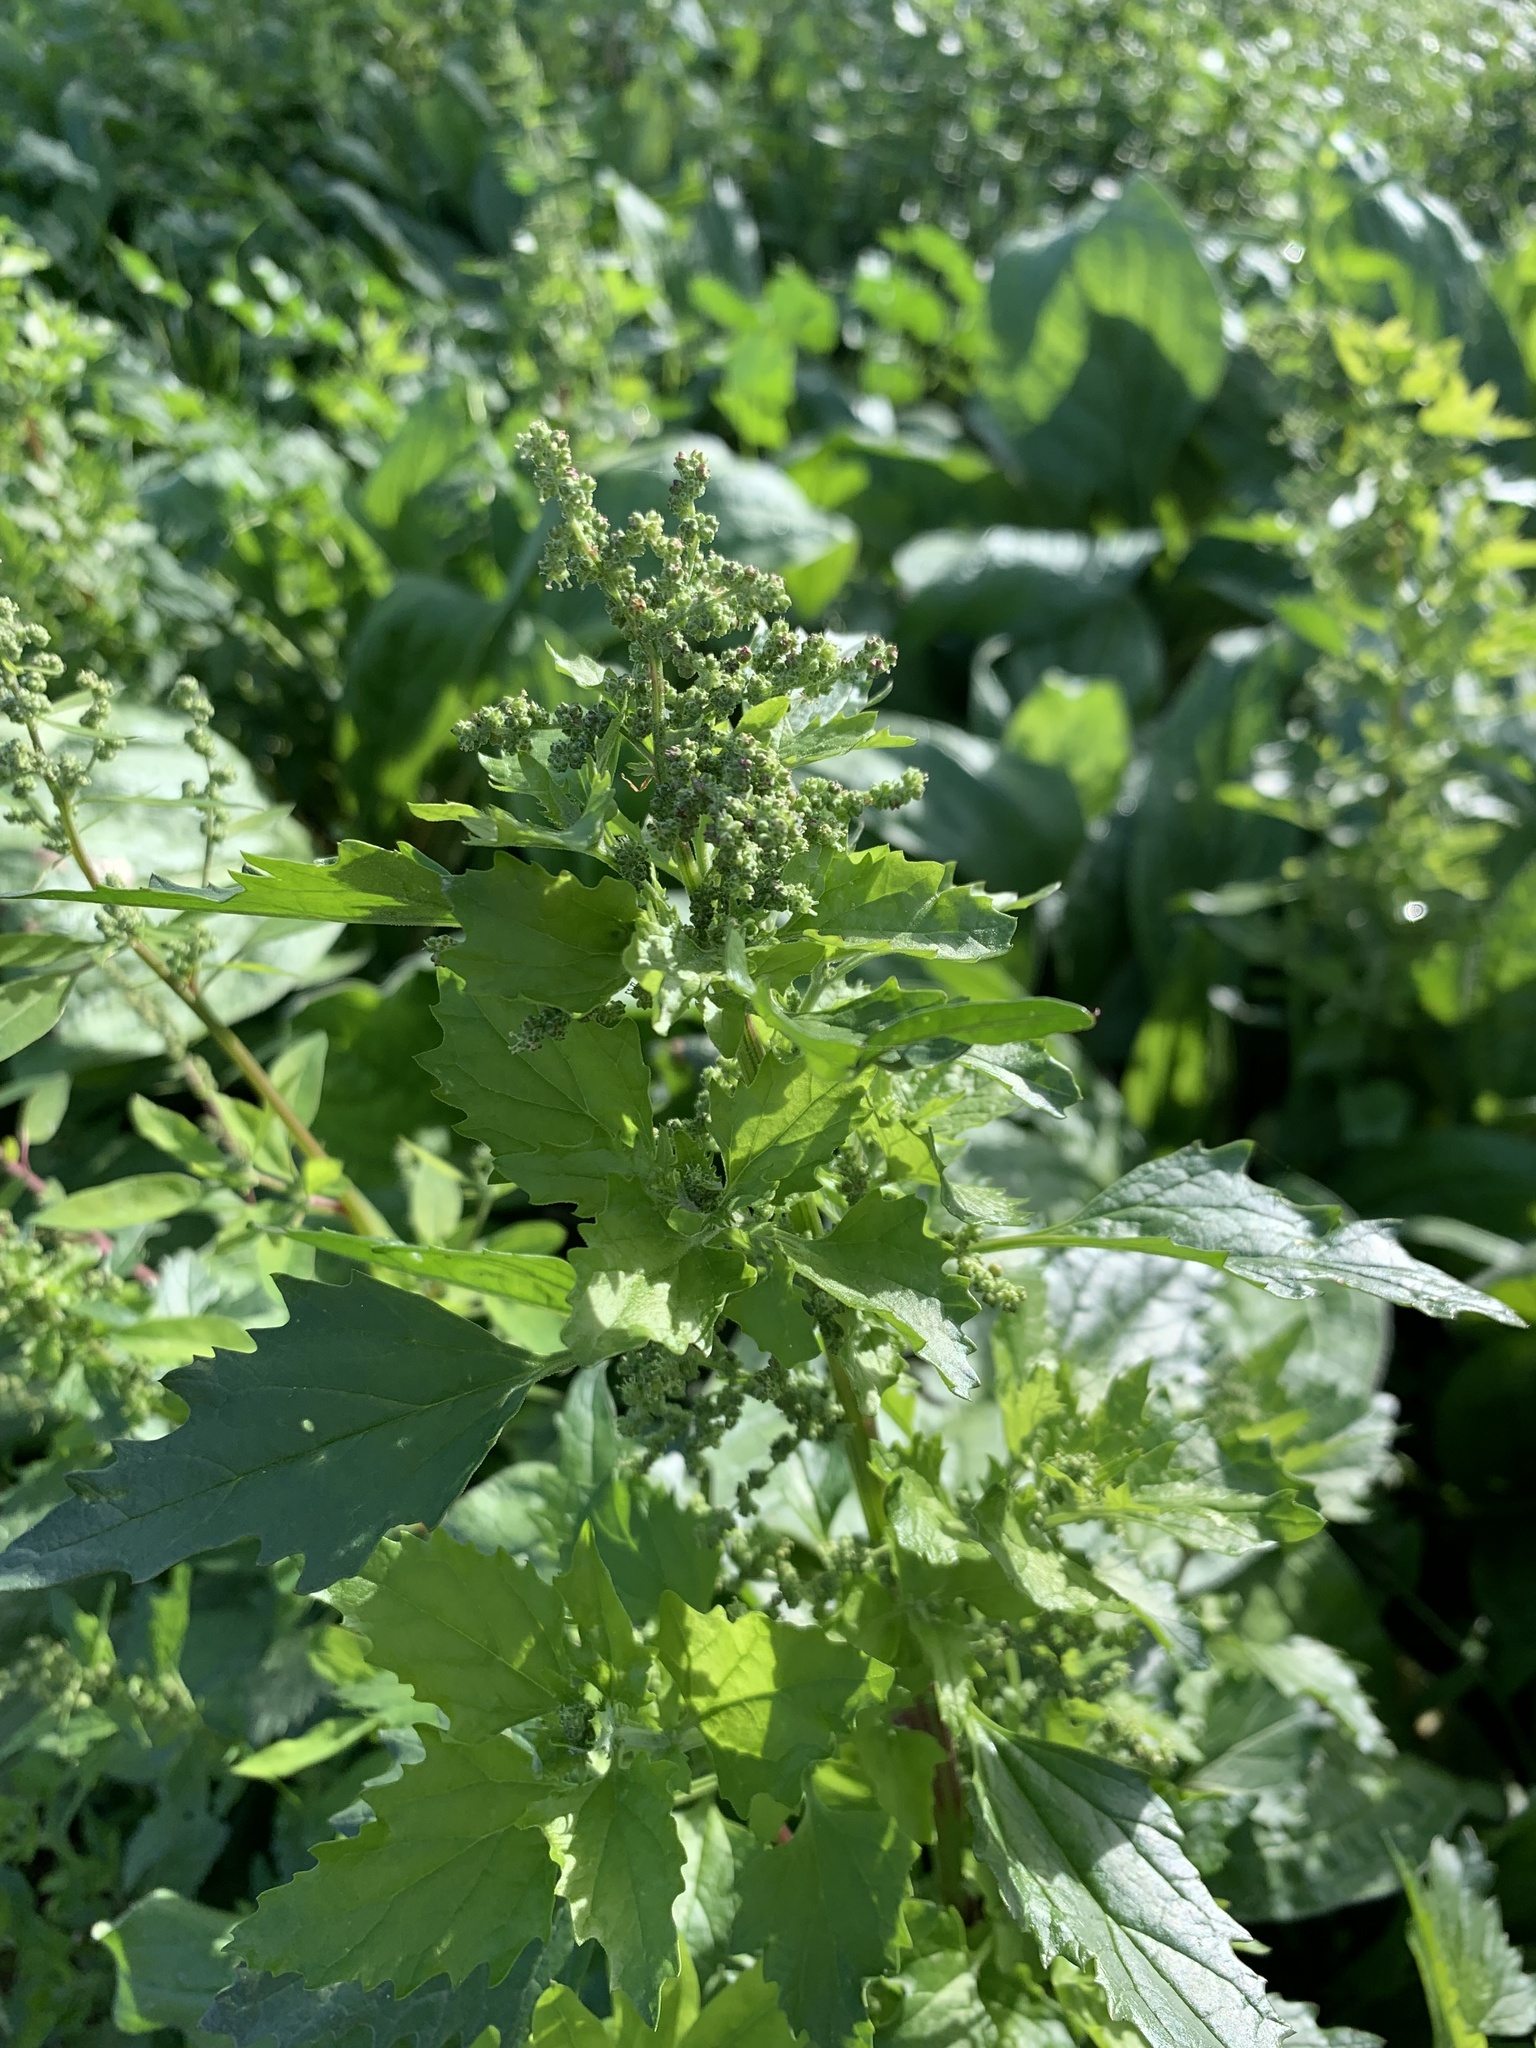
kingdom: Plantae
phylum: Tracheophyta
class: Magnoliopsida
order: Caryophyllales
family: Amaranthaceae
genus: Chenopodiastrum
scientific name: Chenopodiastrum murale
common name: Sowbane
